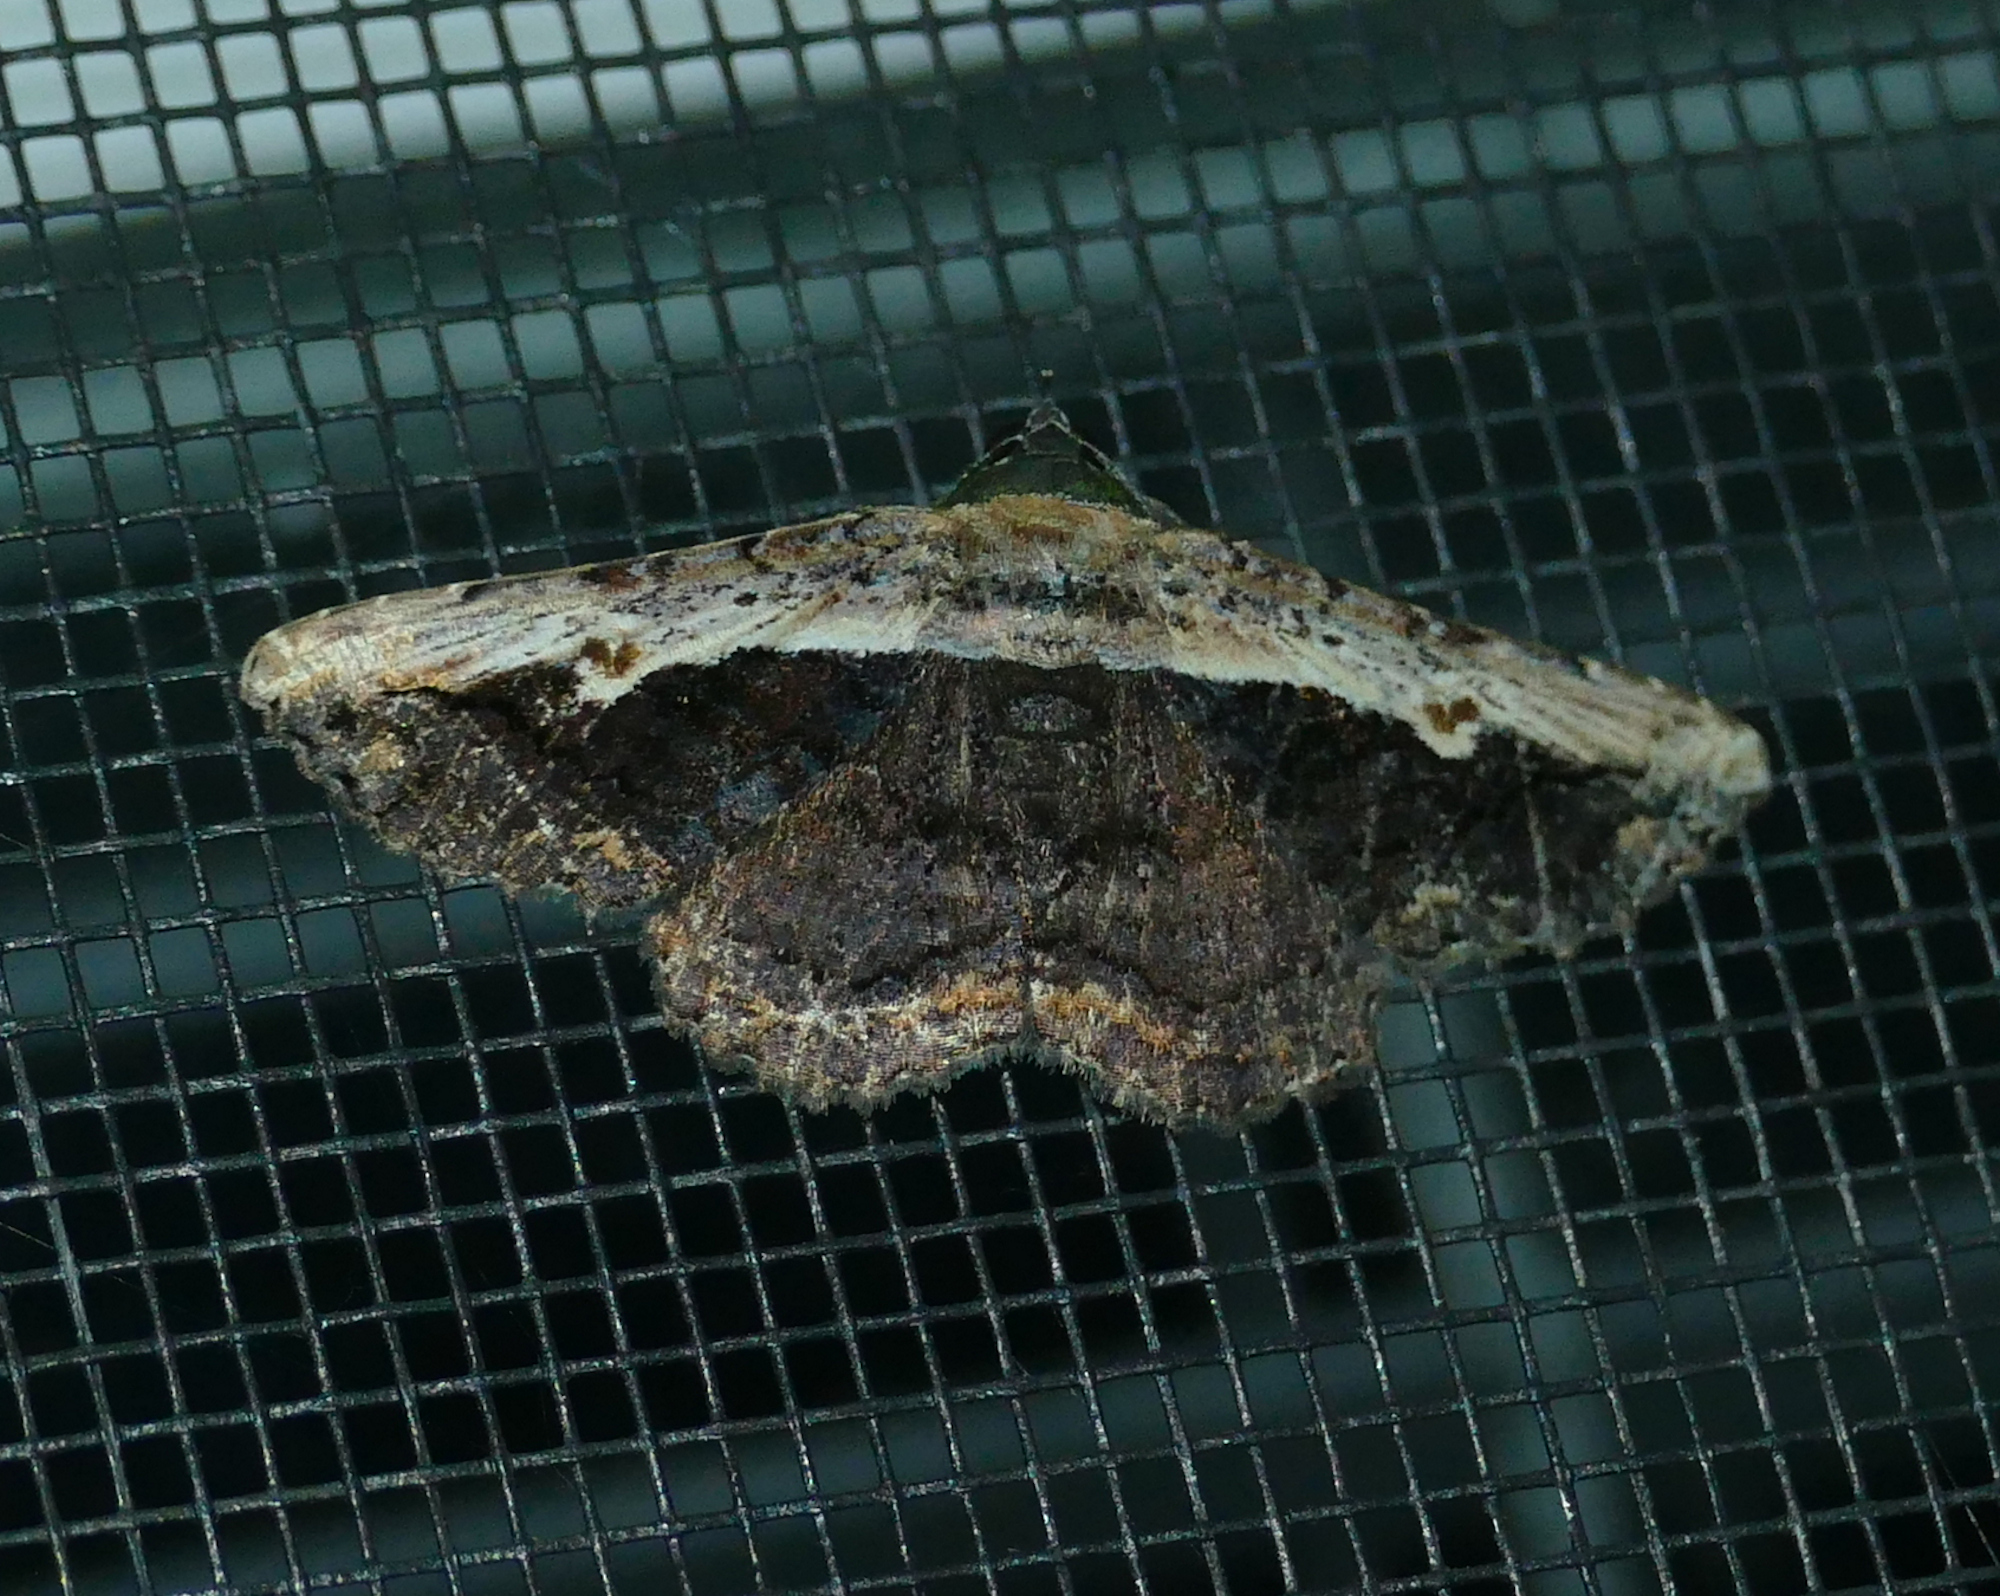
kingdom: Animalia
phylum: Arthropoda
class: Insecta
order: Lepidoptera
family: Erebidae
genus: Selenisa
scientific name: Selenisa sueroides
